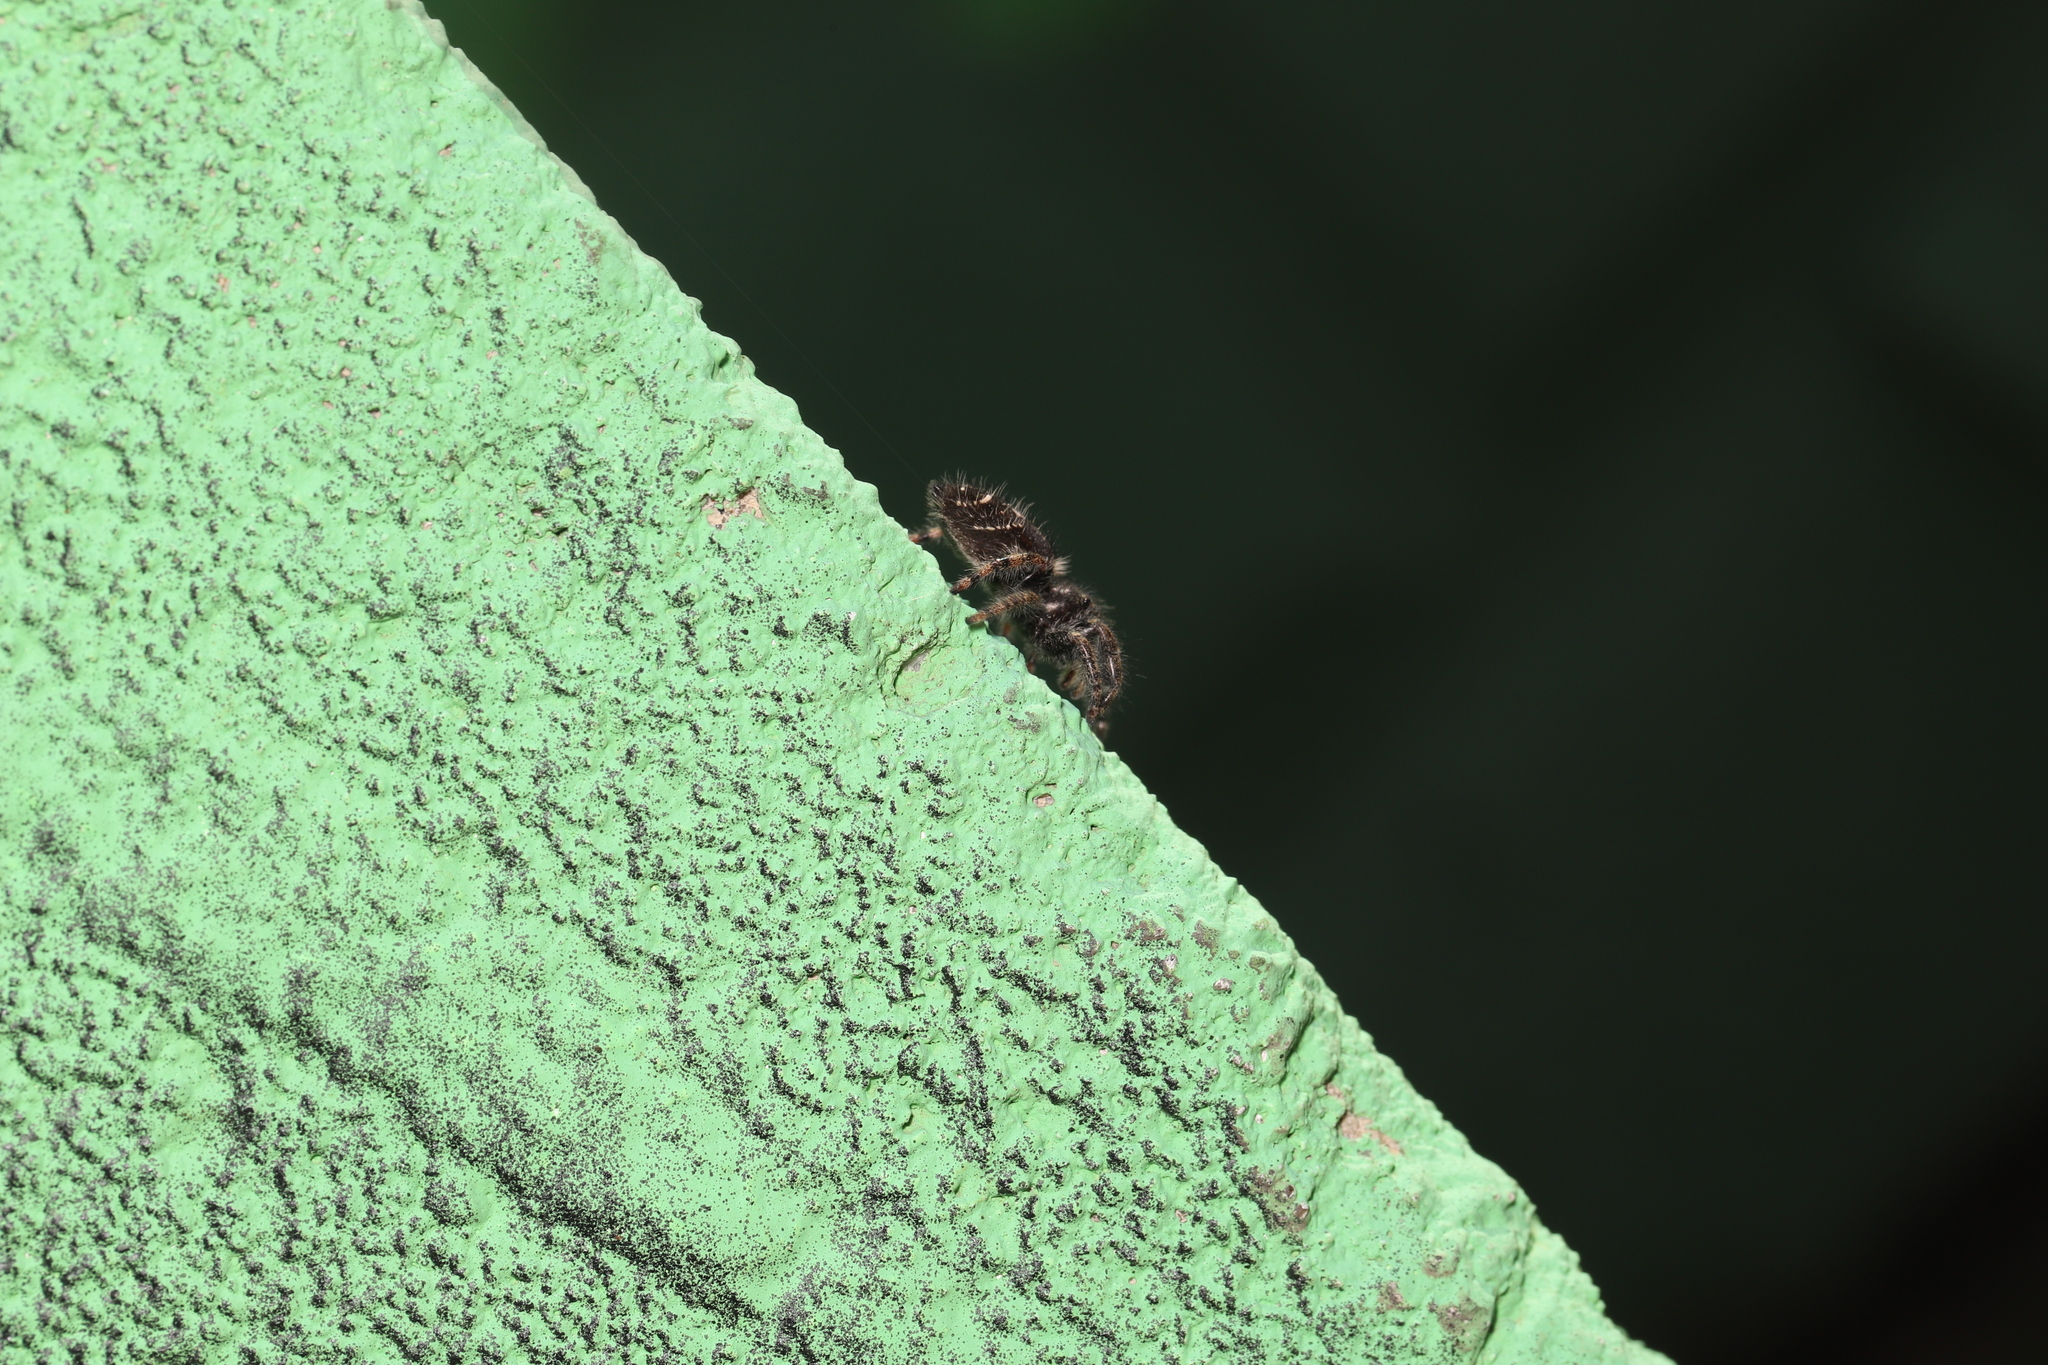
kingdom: Animalia
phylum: Arthropoda
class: Arachnida
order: Araneae
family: Salticidae
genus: Phidippus
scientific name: Phidippus audax
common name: Bold jumper
